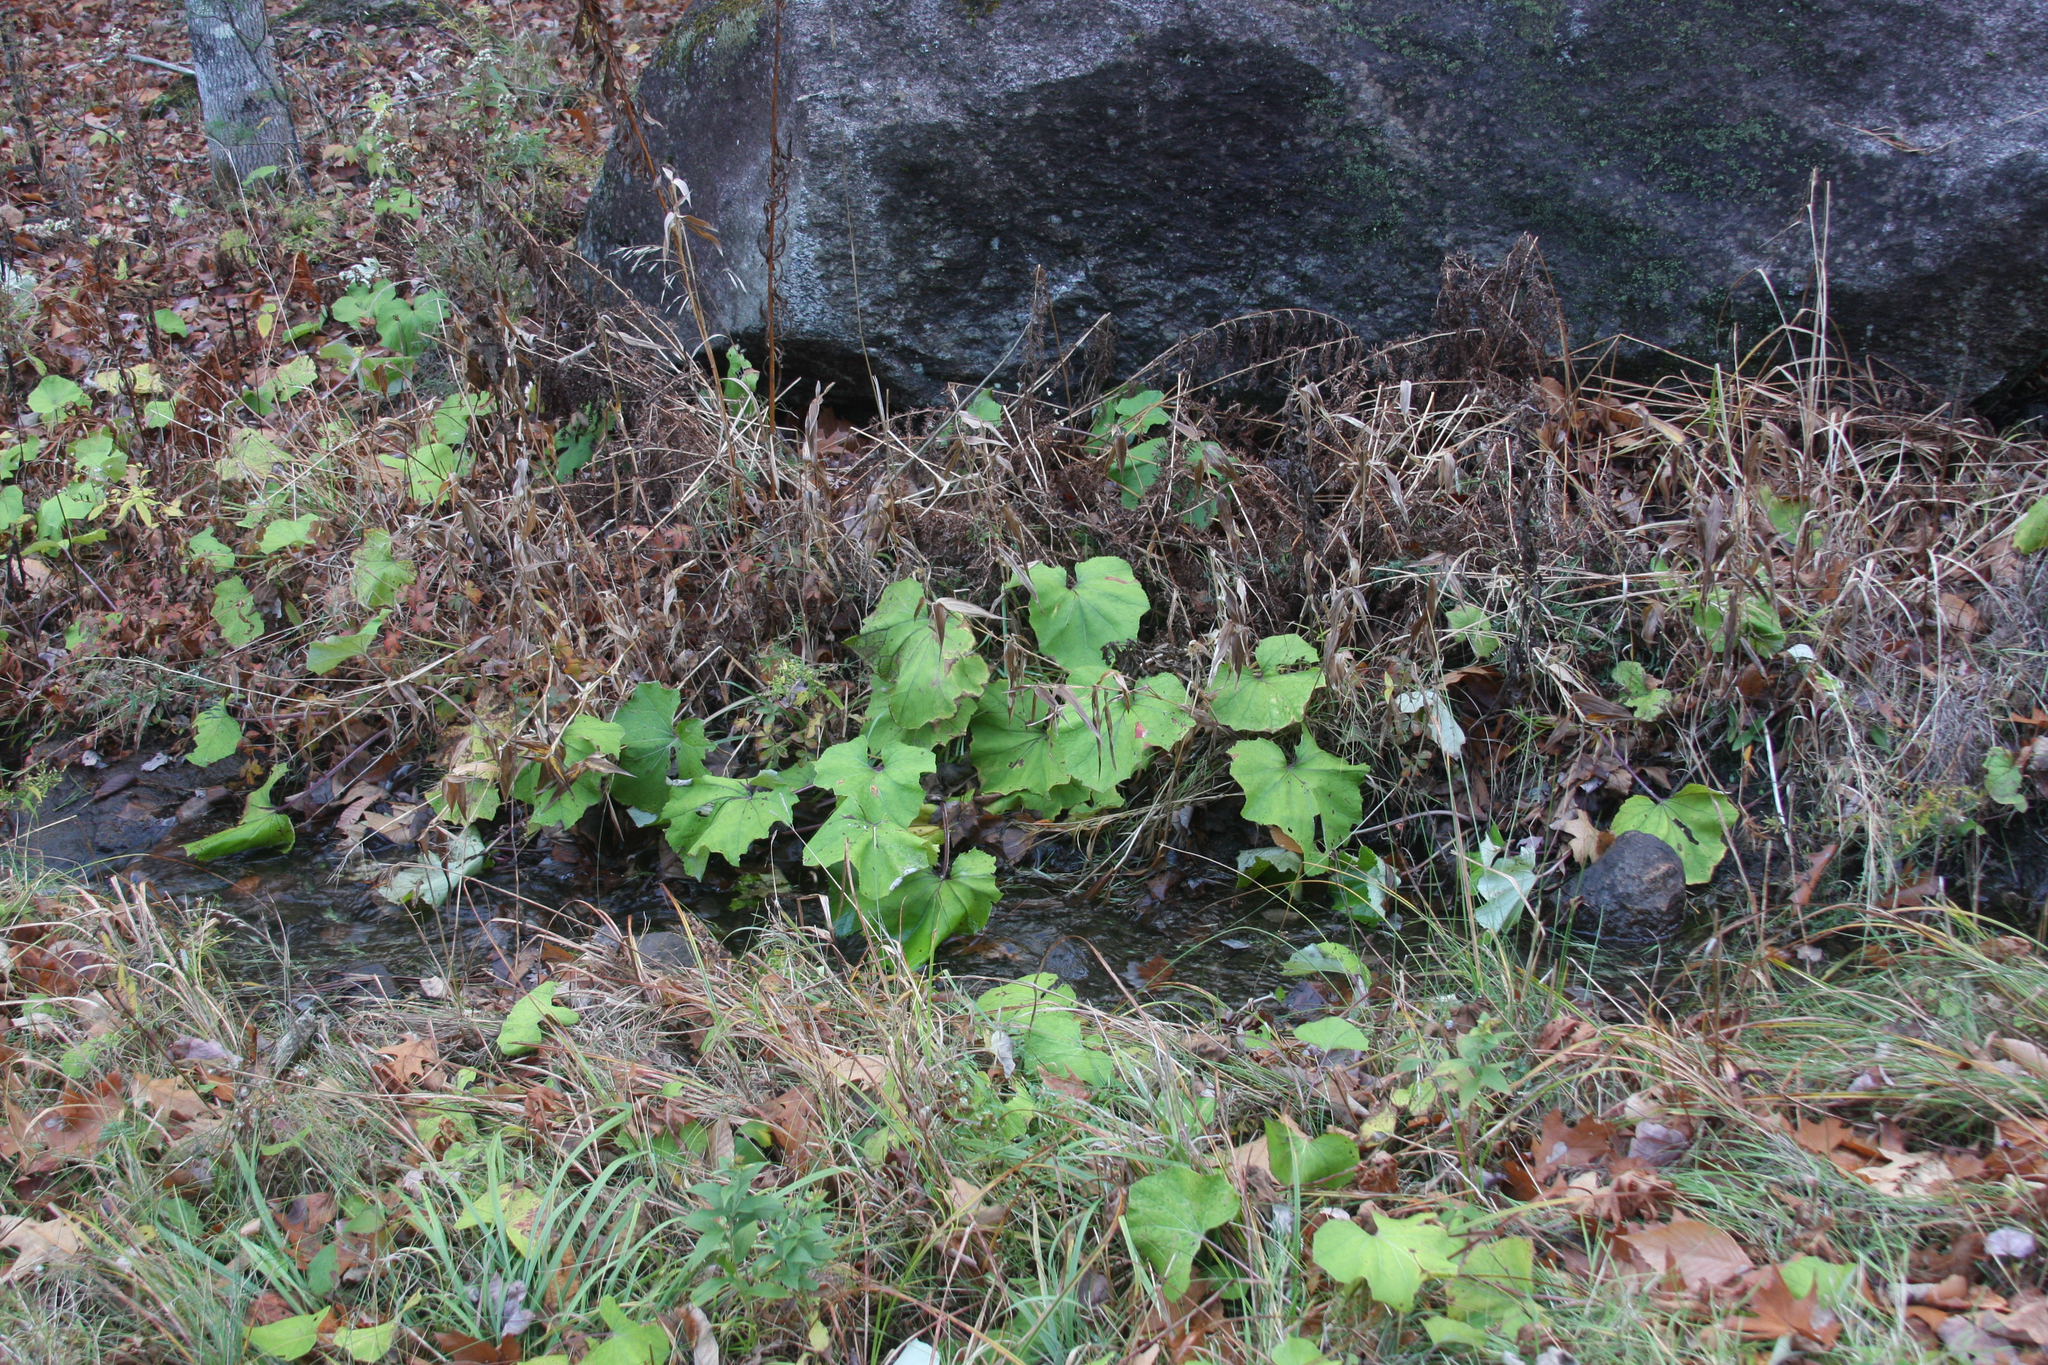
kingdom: Plantae
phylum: Tracheophyta
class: Magnoliopsida
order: Asterales
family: Asteraceae
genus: Tussilago
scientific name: Tussilago farfara
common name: Coltsfoot
